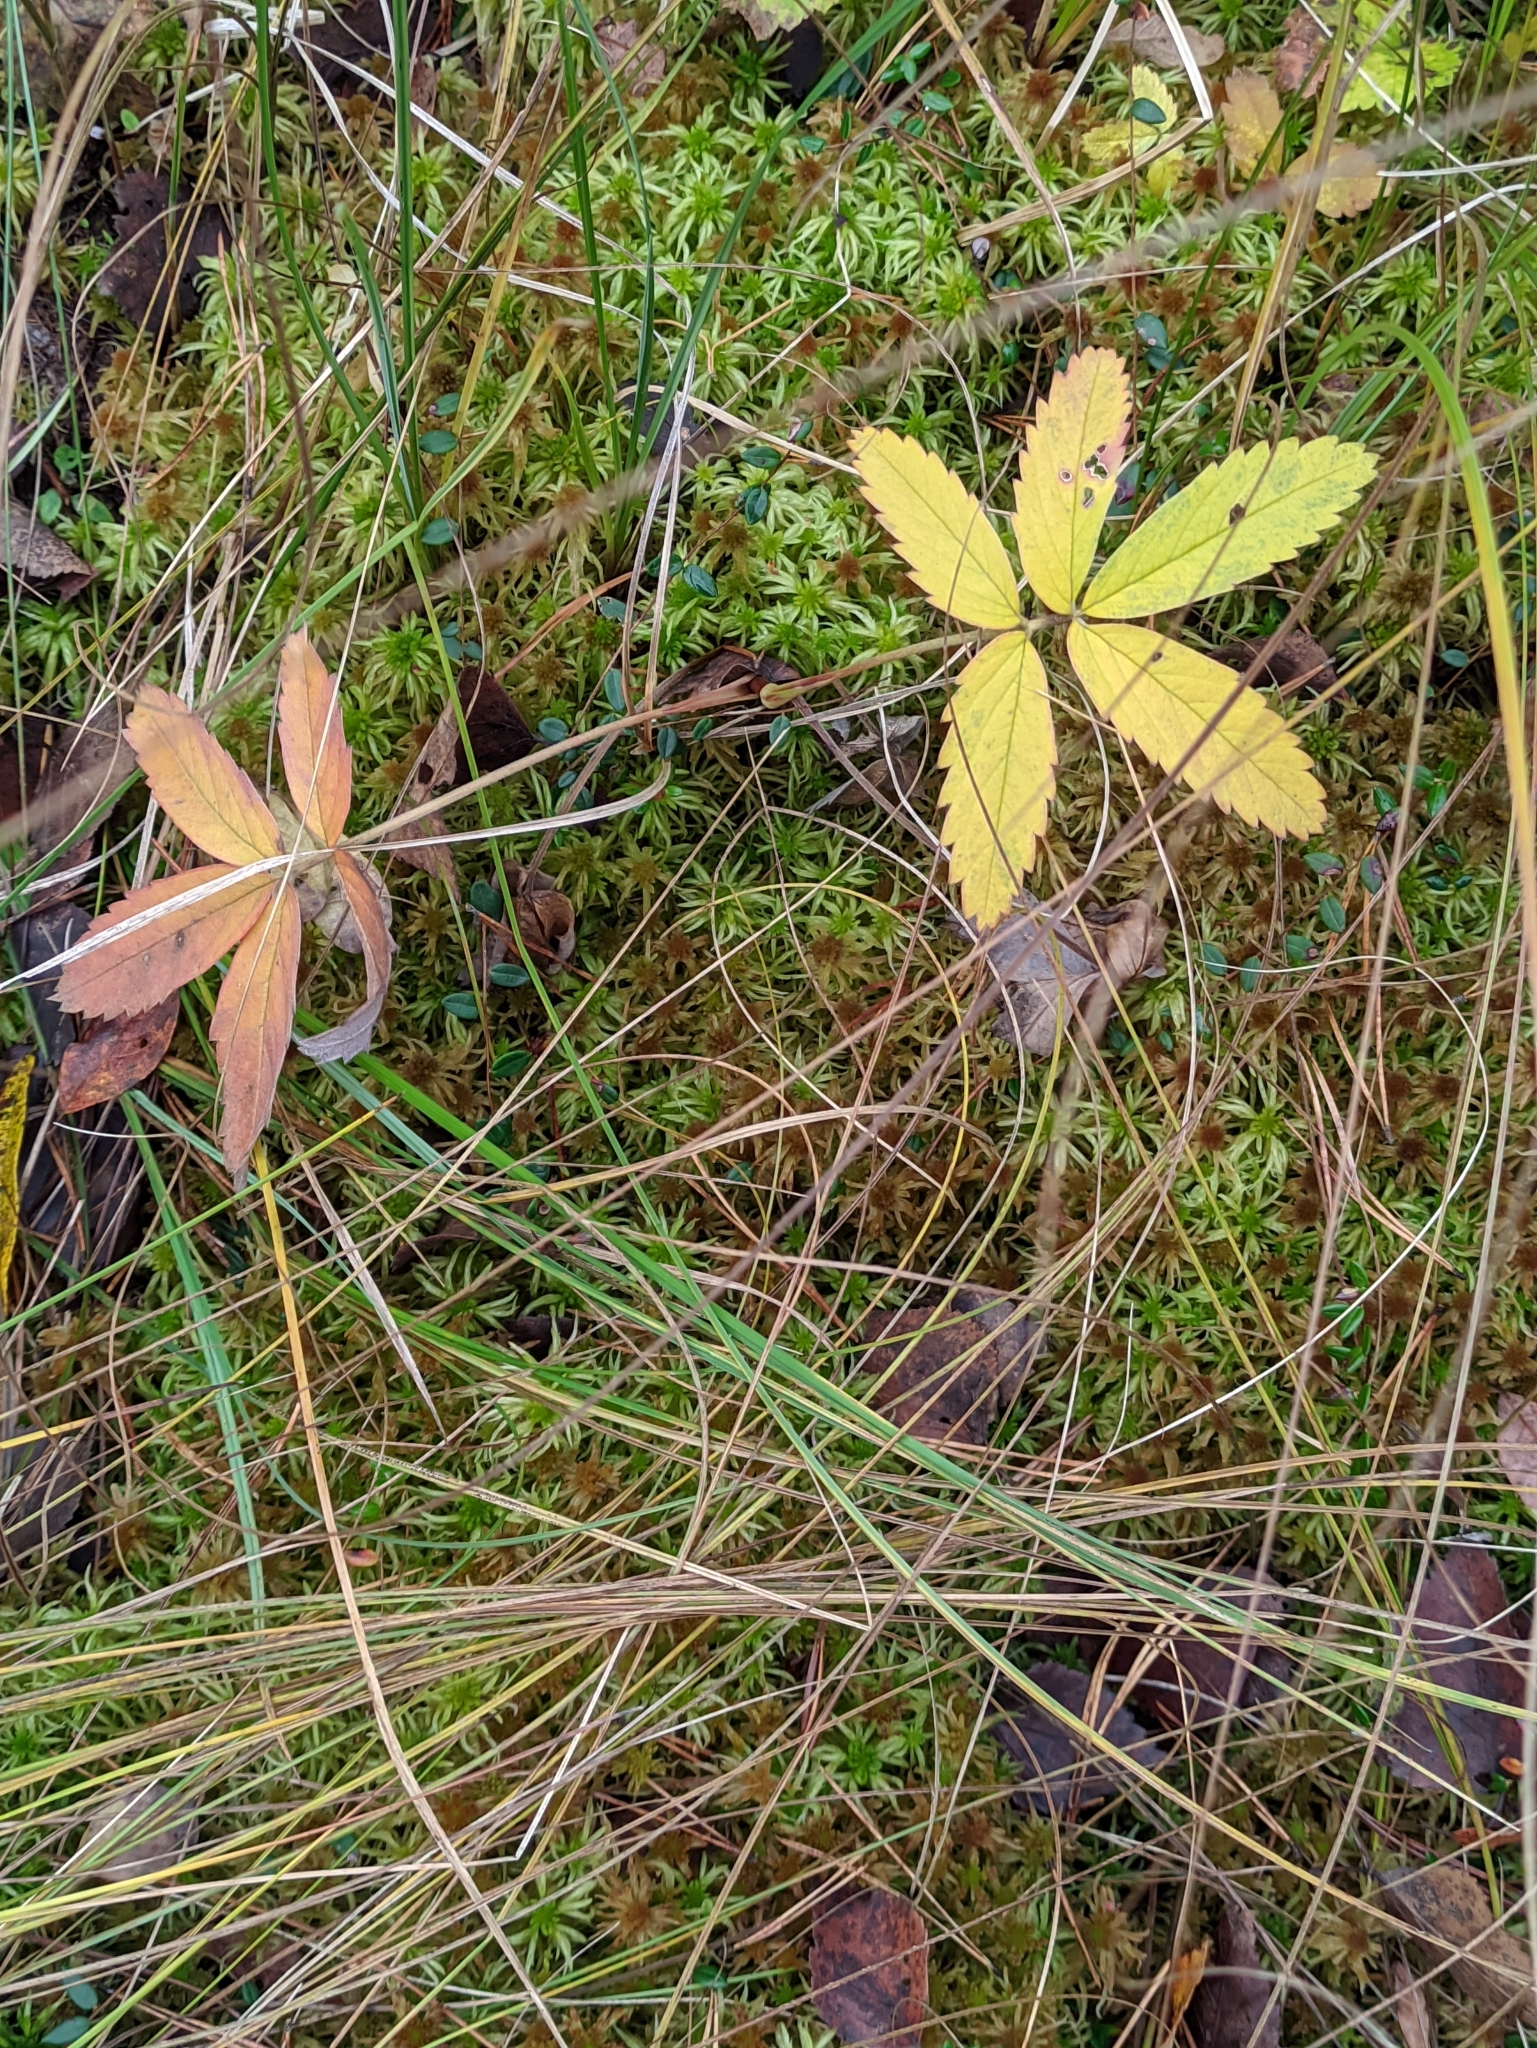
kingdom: Plantae
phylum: Tracheophyta
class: Magnoliopsida
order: Rosales
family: Rosaceae
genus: Comarum
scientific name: Comarum palustre
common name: Marsh cinquefoil
